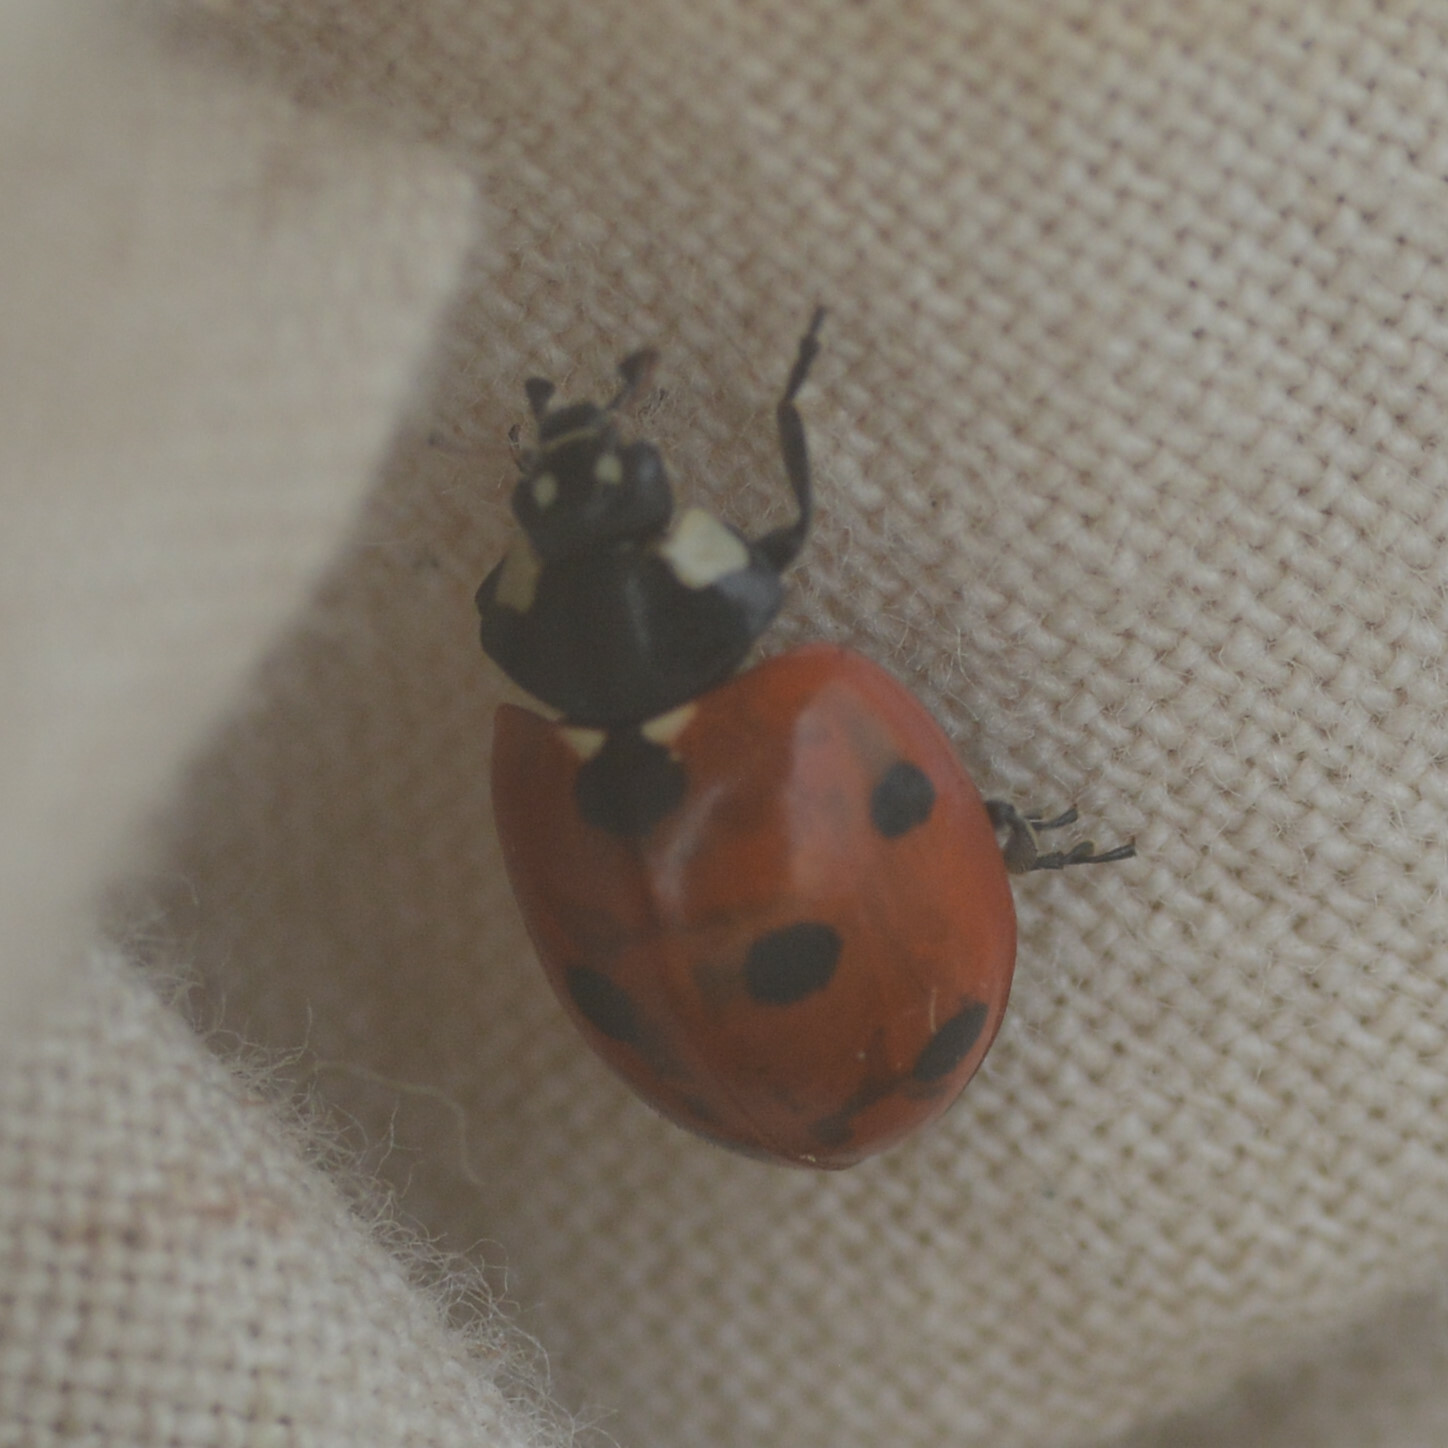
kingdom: Animalia
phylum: Arthropoda
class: Insecta
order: Coleoptera
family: Coccinellidae
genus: Coccinella
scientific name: Coccinella septempunctata
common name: Sevenspotted lady beetle
